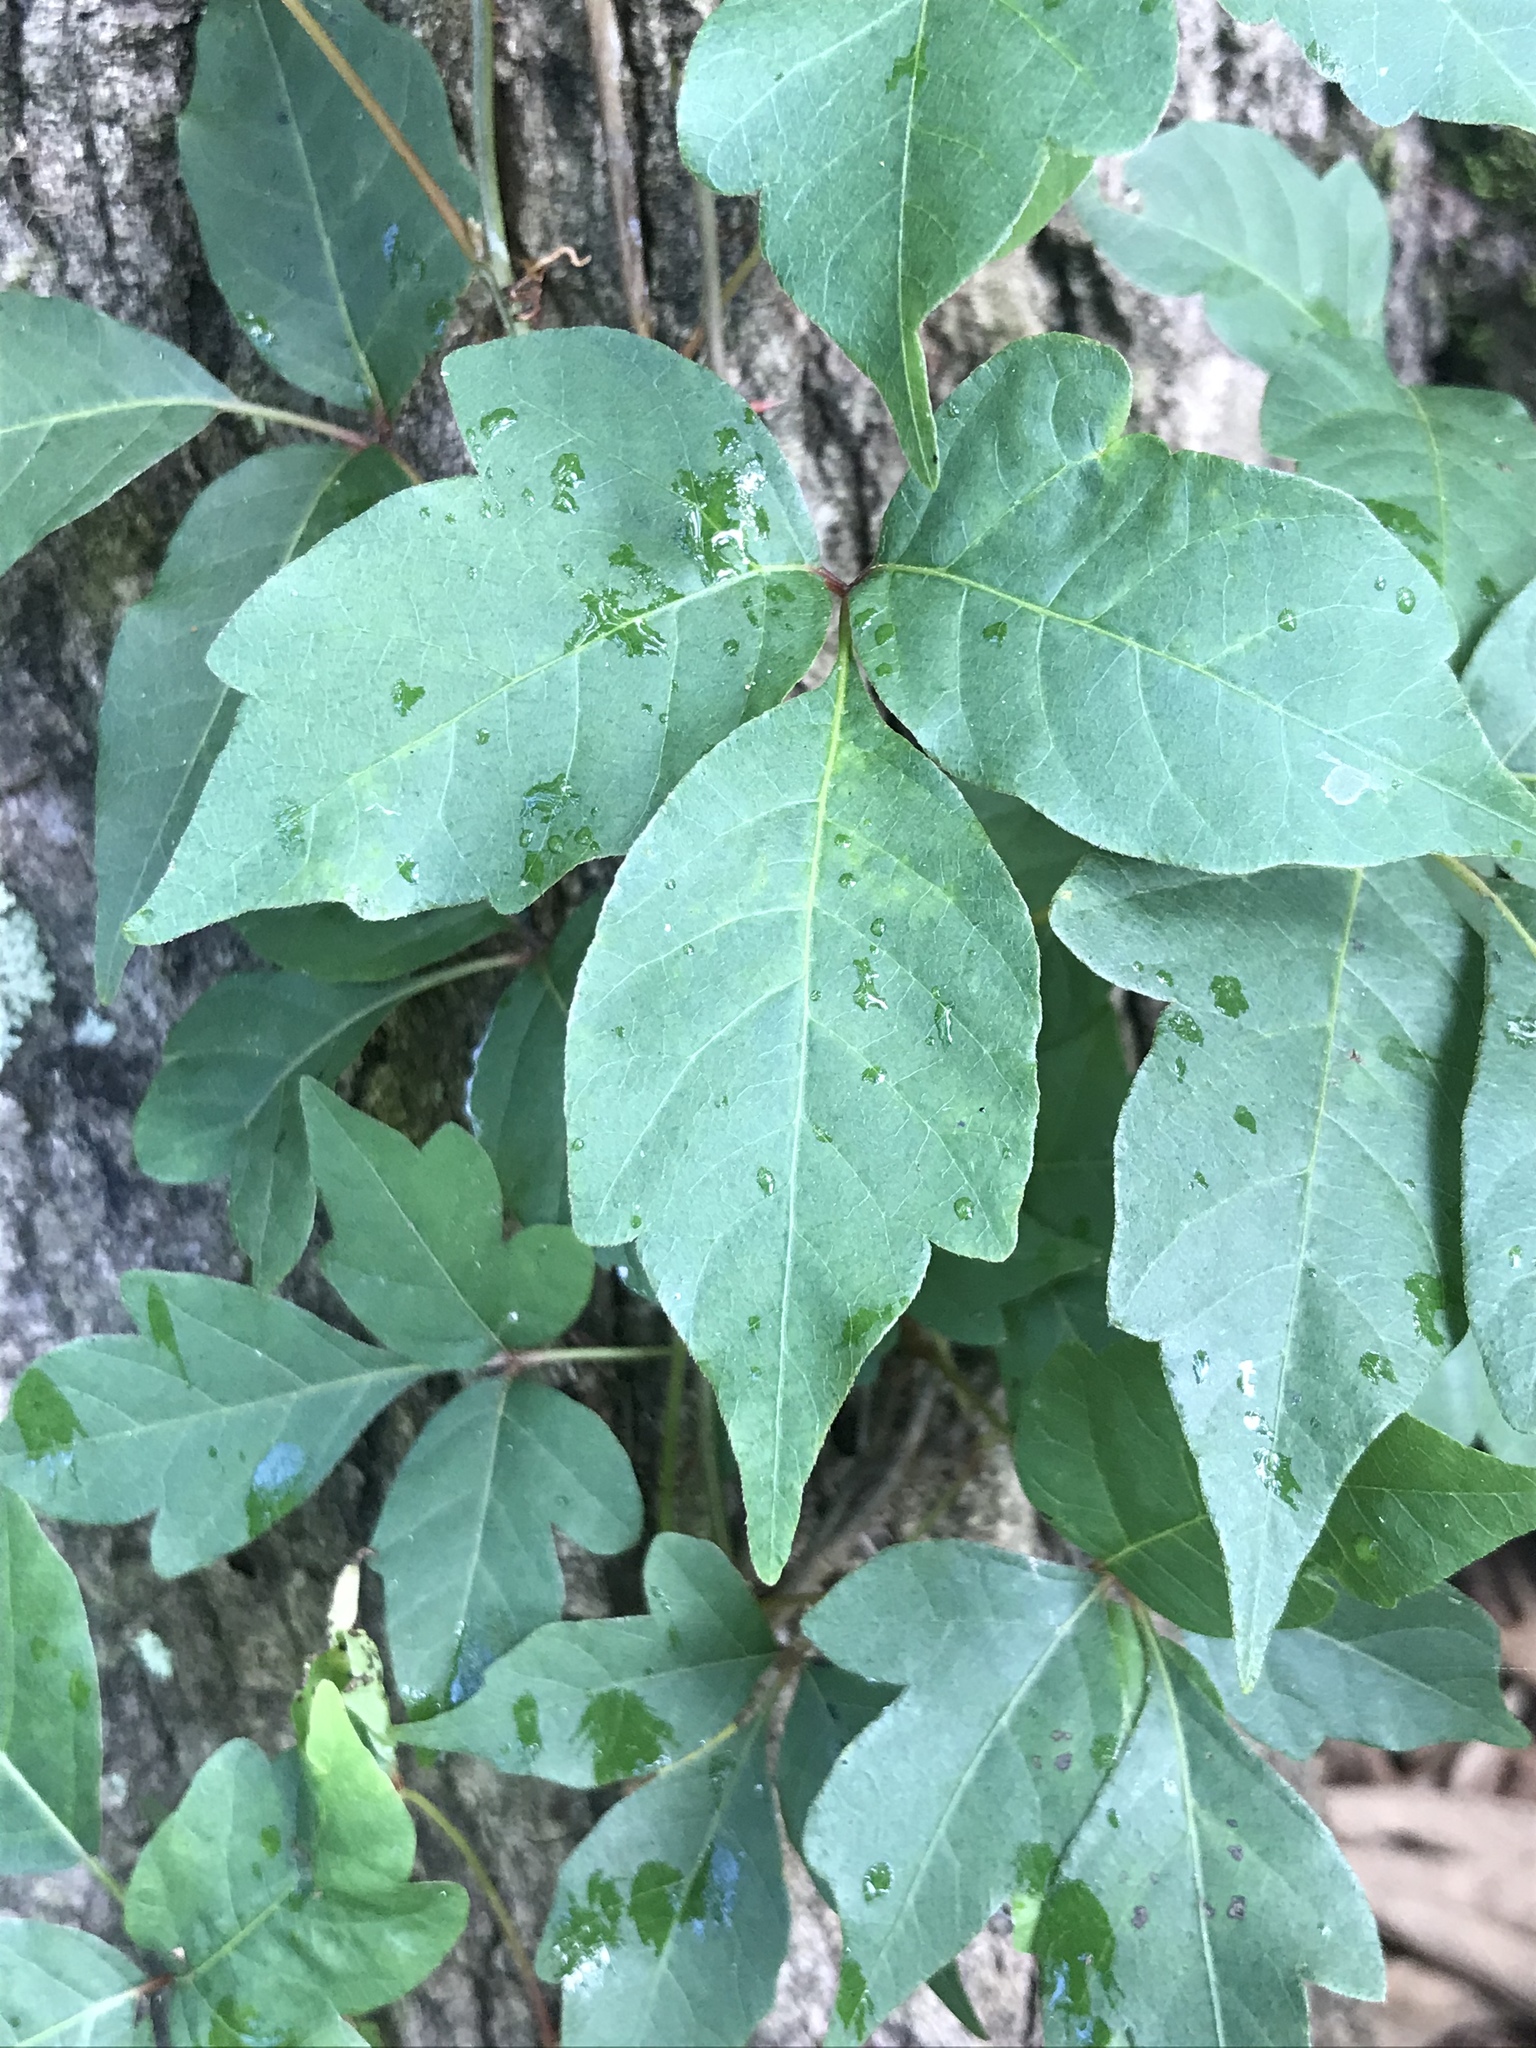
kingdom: Plantae
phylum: Tracheophyta
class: Magnoliopsida
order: Sapindales
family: Anacardiaceae
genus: Toxicodendron
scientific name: Toxicodendron radicans
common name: Poison ivy
